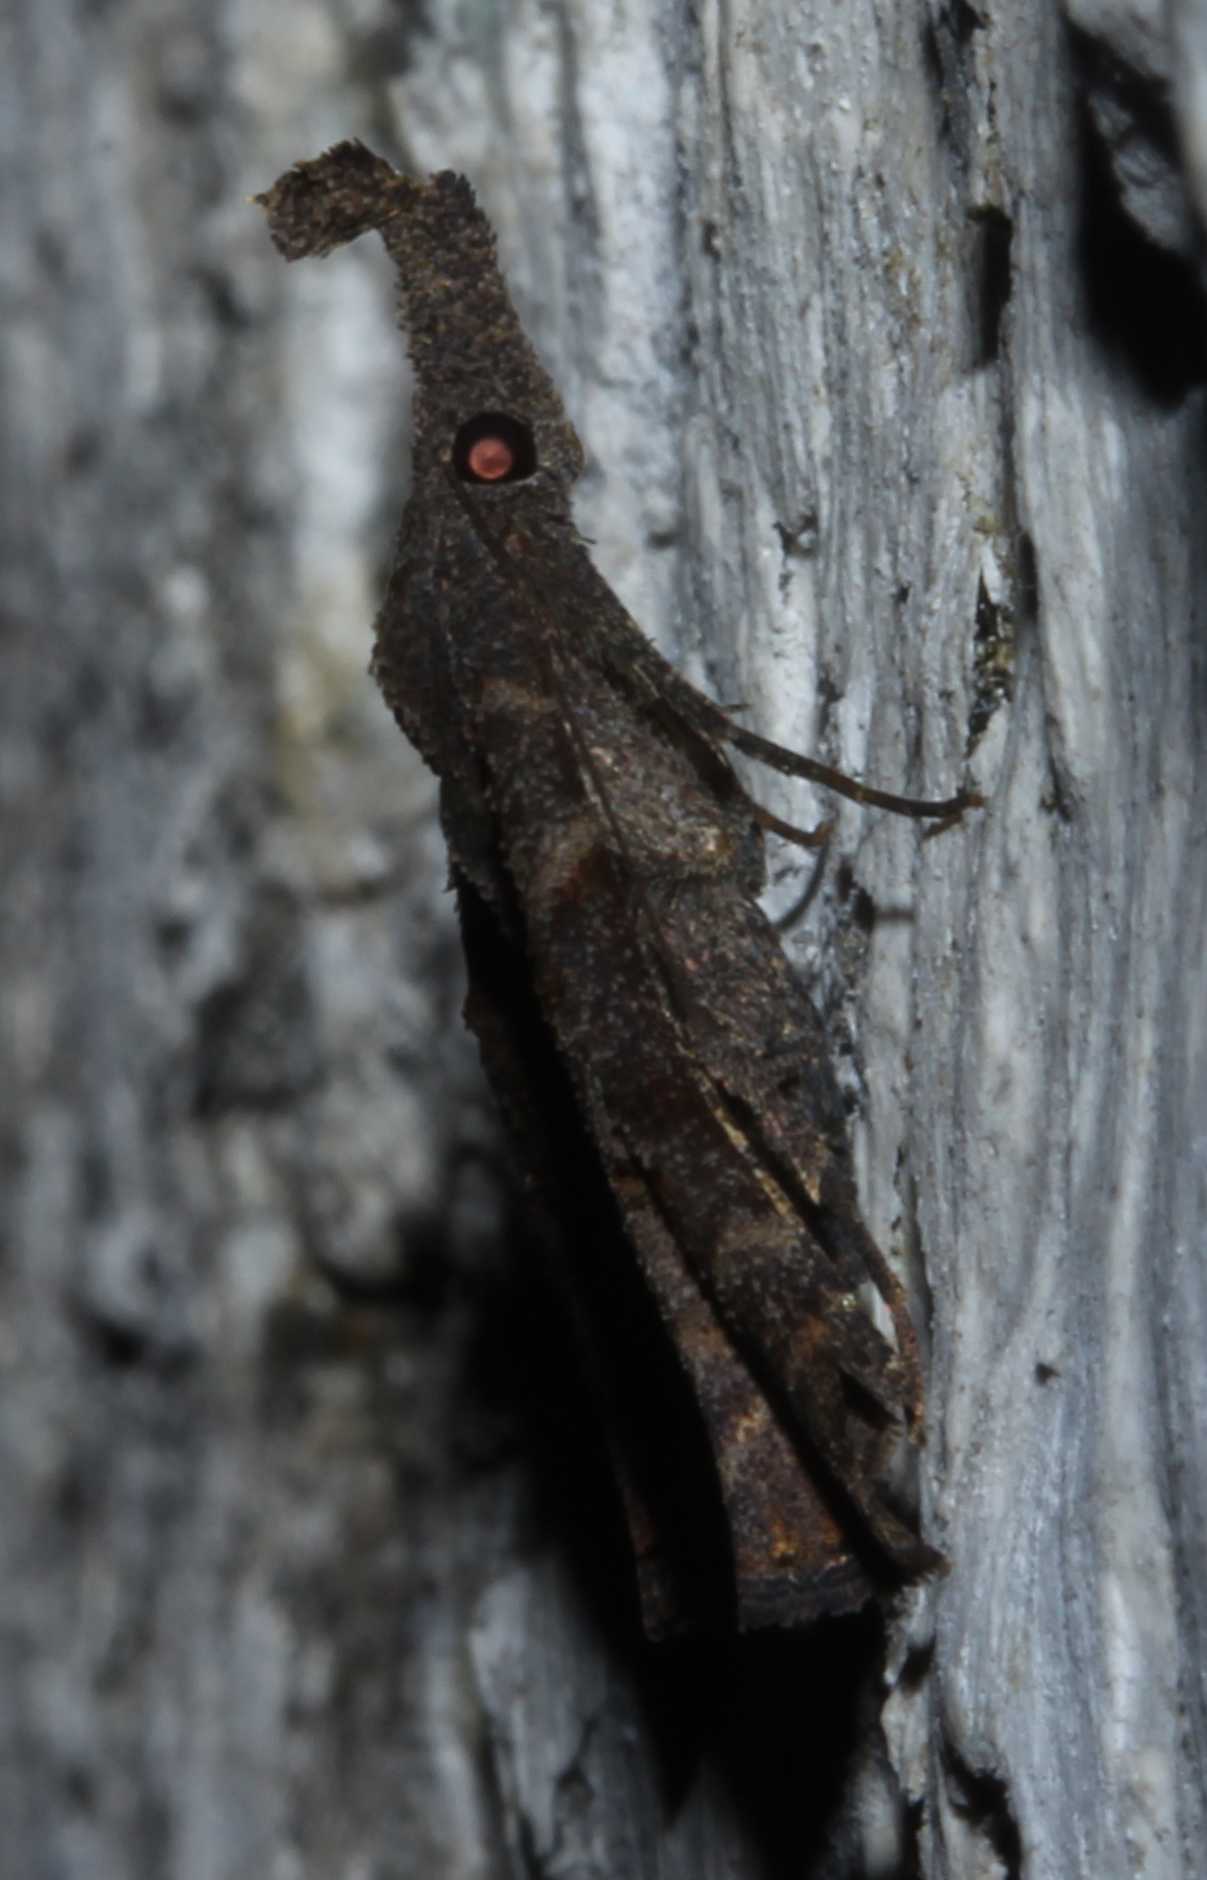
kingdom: Animalia
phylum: Arthropoda
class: Insecta
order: Lepidoptera
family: Erebidae
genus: Palthis
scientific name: Palthis asopialis
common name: Faint-spotted palthis moth
